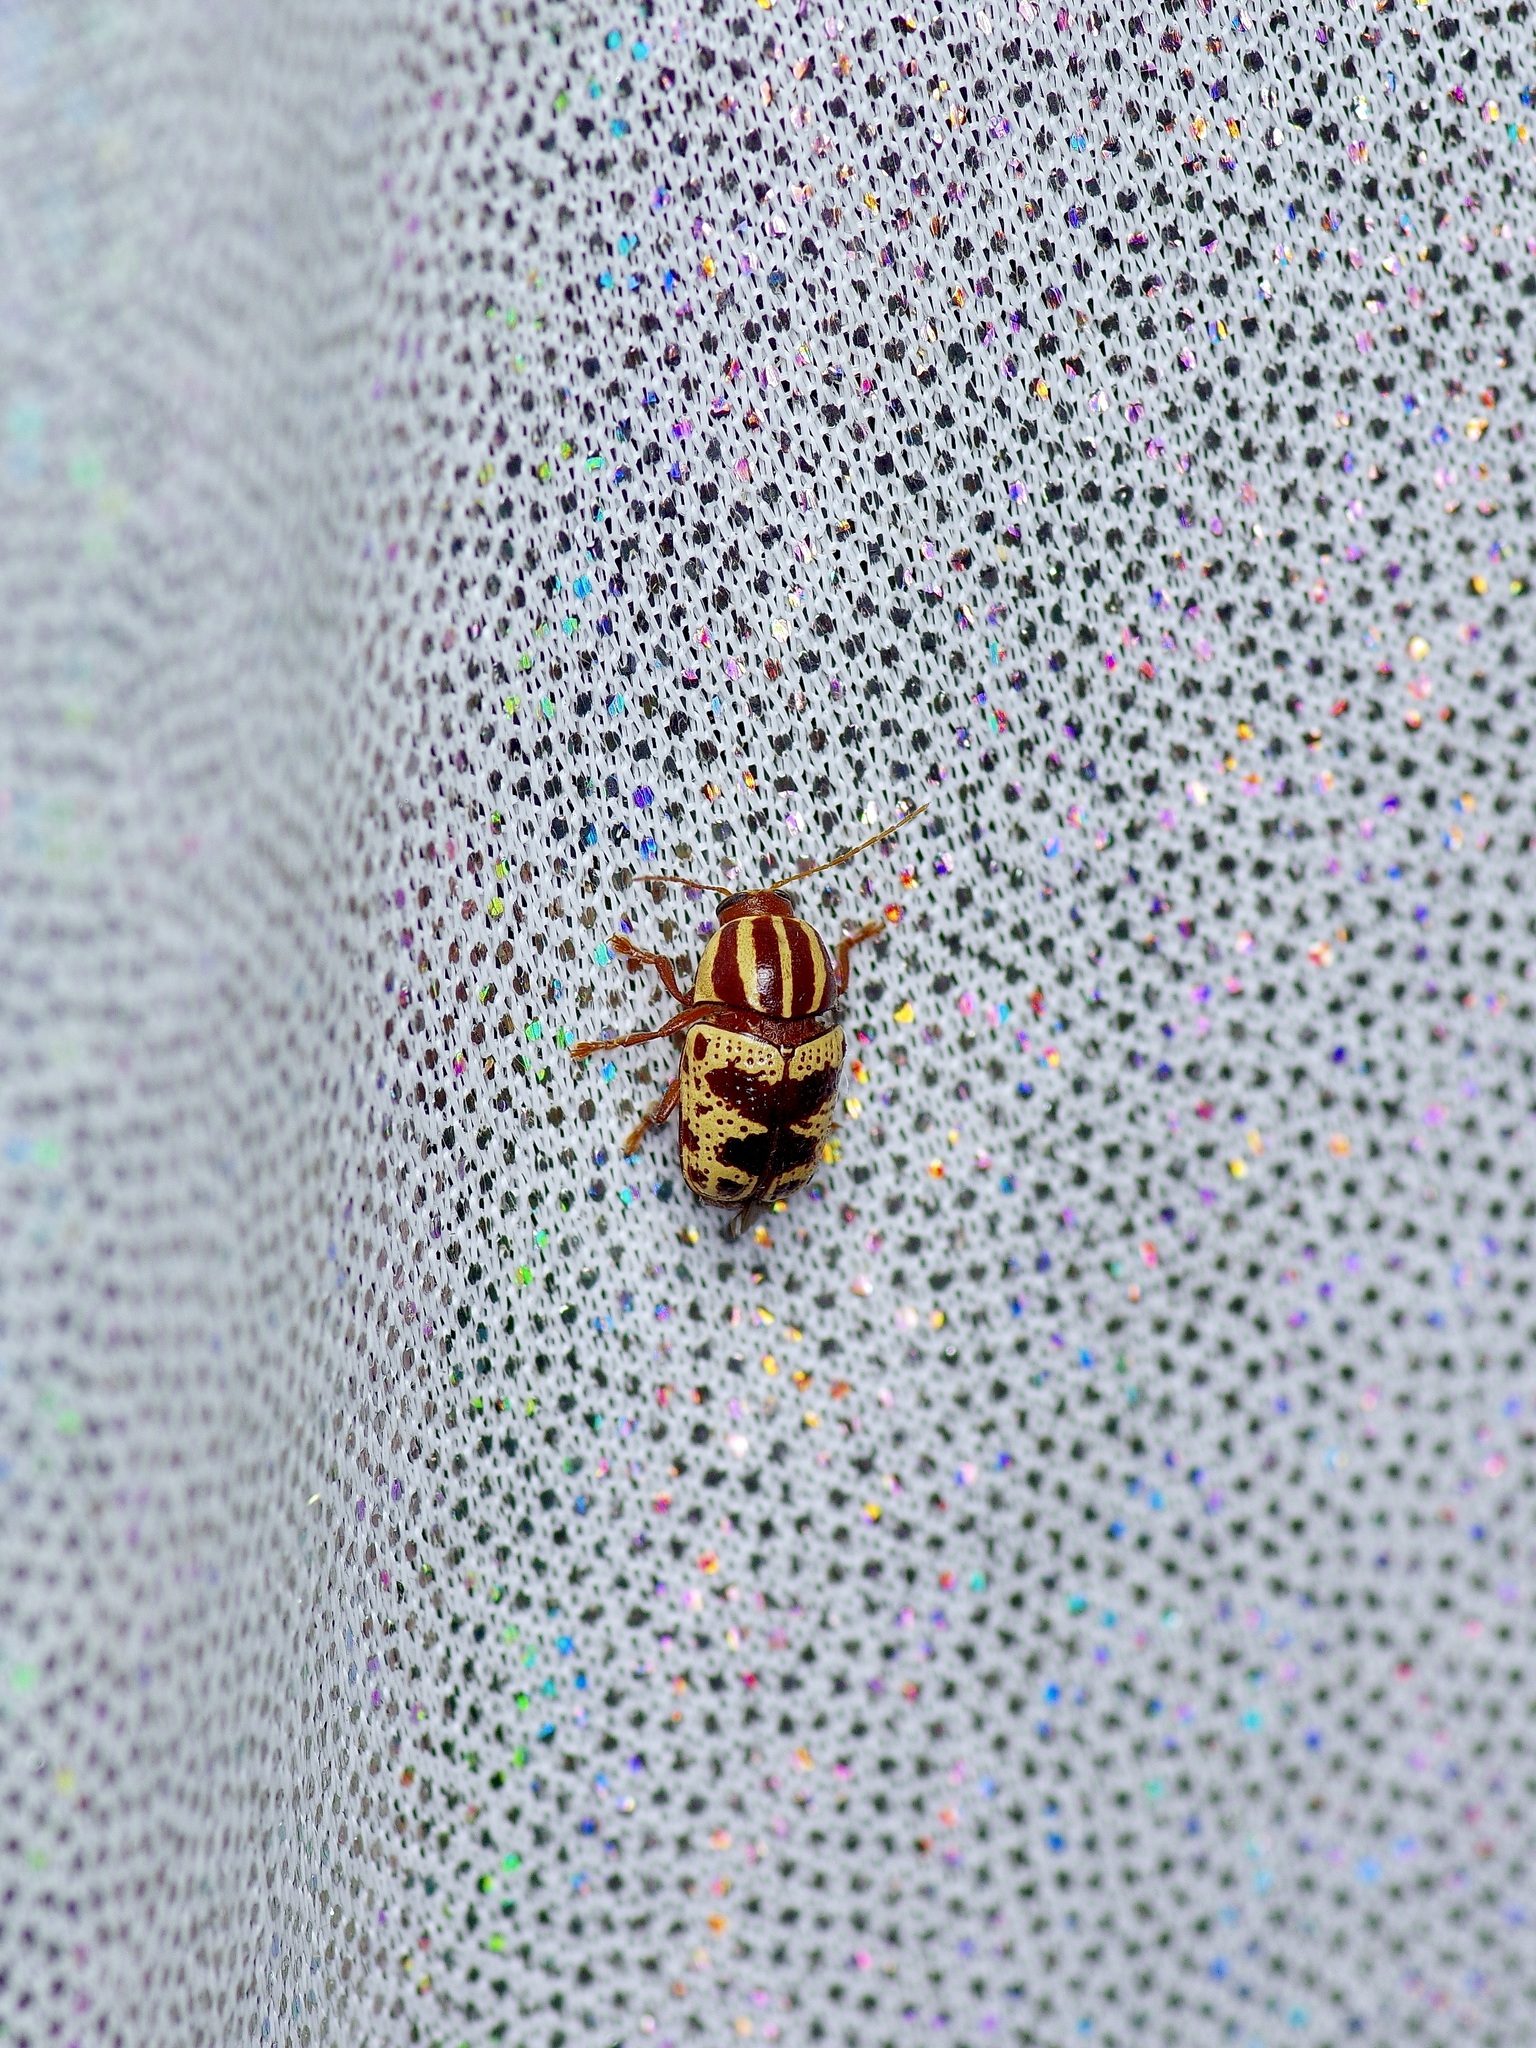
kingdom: Animalia
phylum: Arthropoda
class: Insecta
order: Coleoptera
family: Chrysomelidae
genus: Cryptocephalus
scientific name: Cryptocephalus leucomelas
